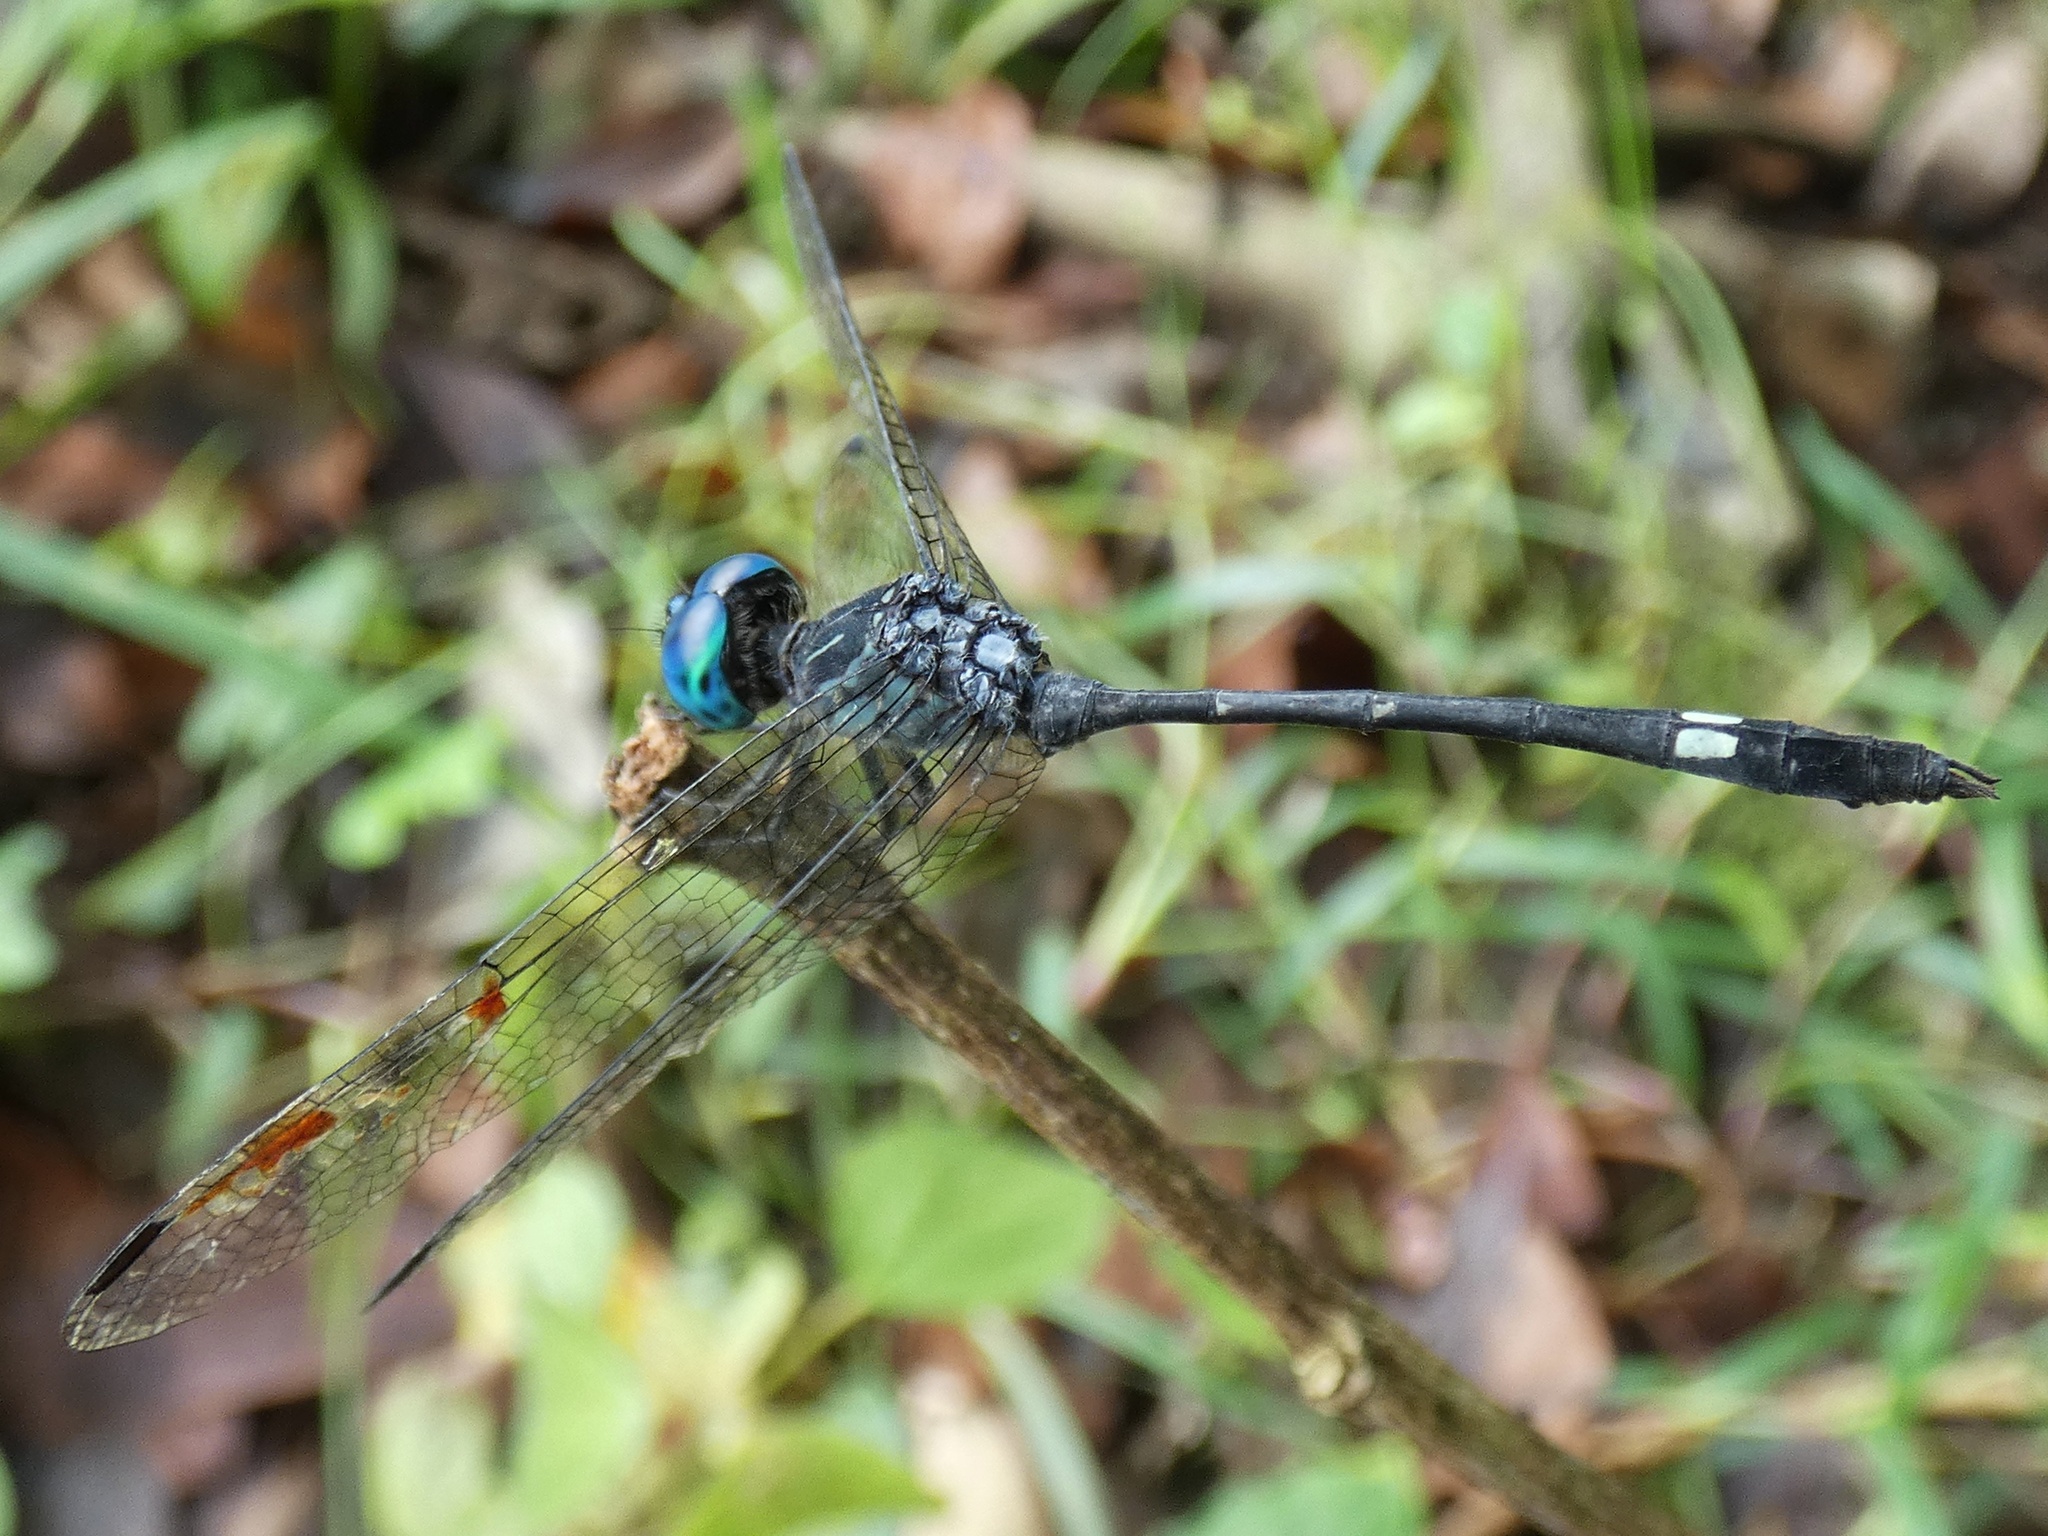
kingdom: Animalia
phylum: Arthropoda
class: Insecta
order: Odonata
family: Libellulidae
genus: Micrathyria
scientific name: Micrathyria dictynna
